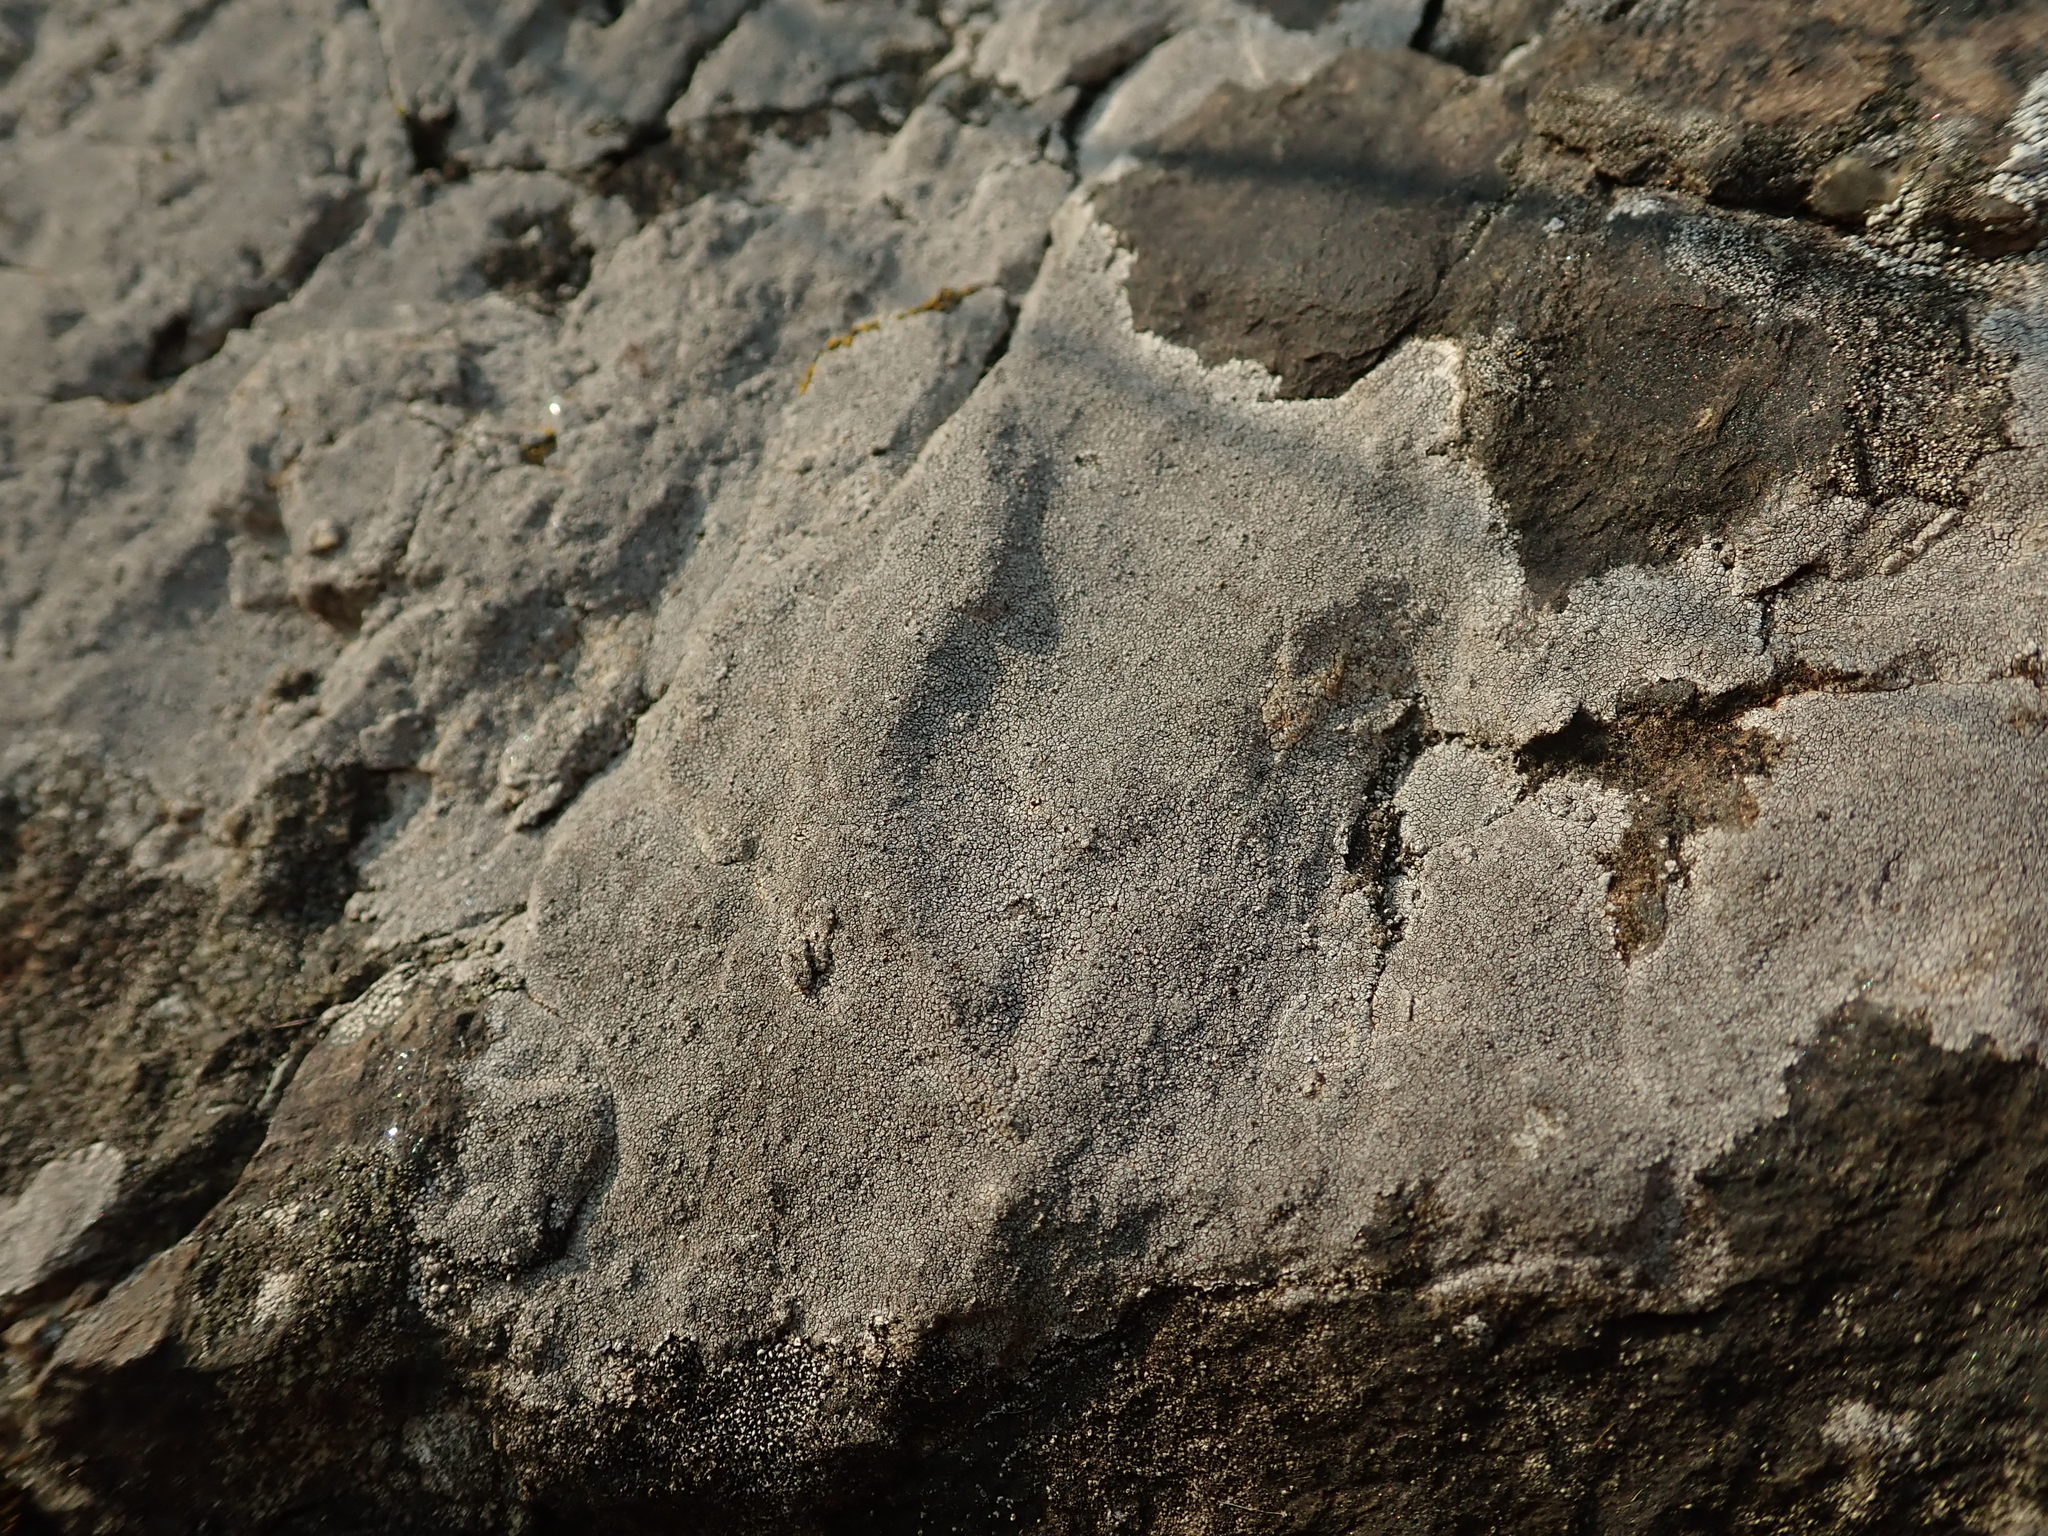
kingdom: Fungi
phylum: Ascomycota
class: Lecanoromycetes
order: Pertusariales
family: Megasporaceae
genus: Circinaria
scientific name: Circinaria caesiocinerea
